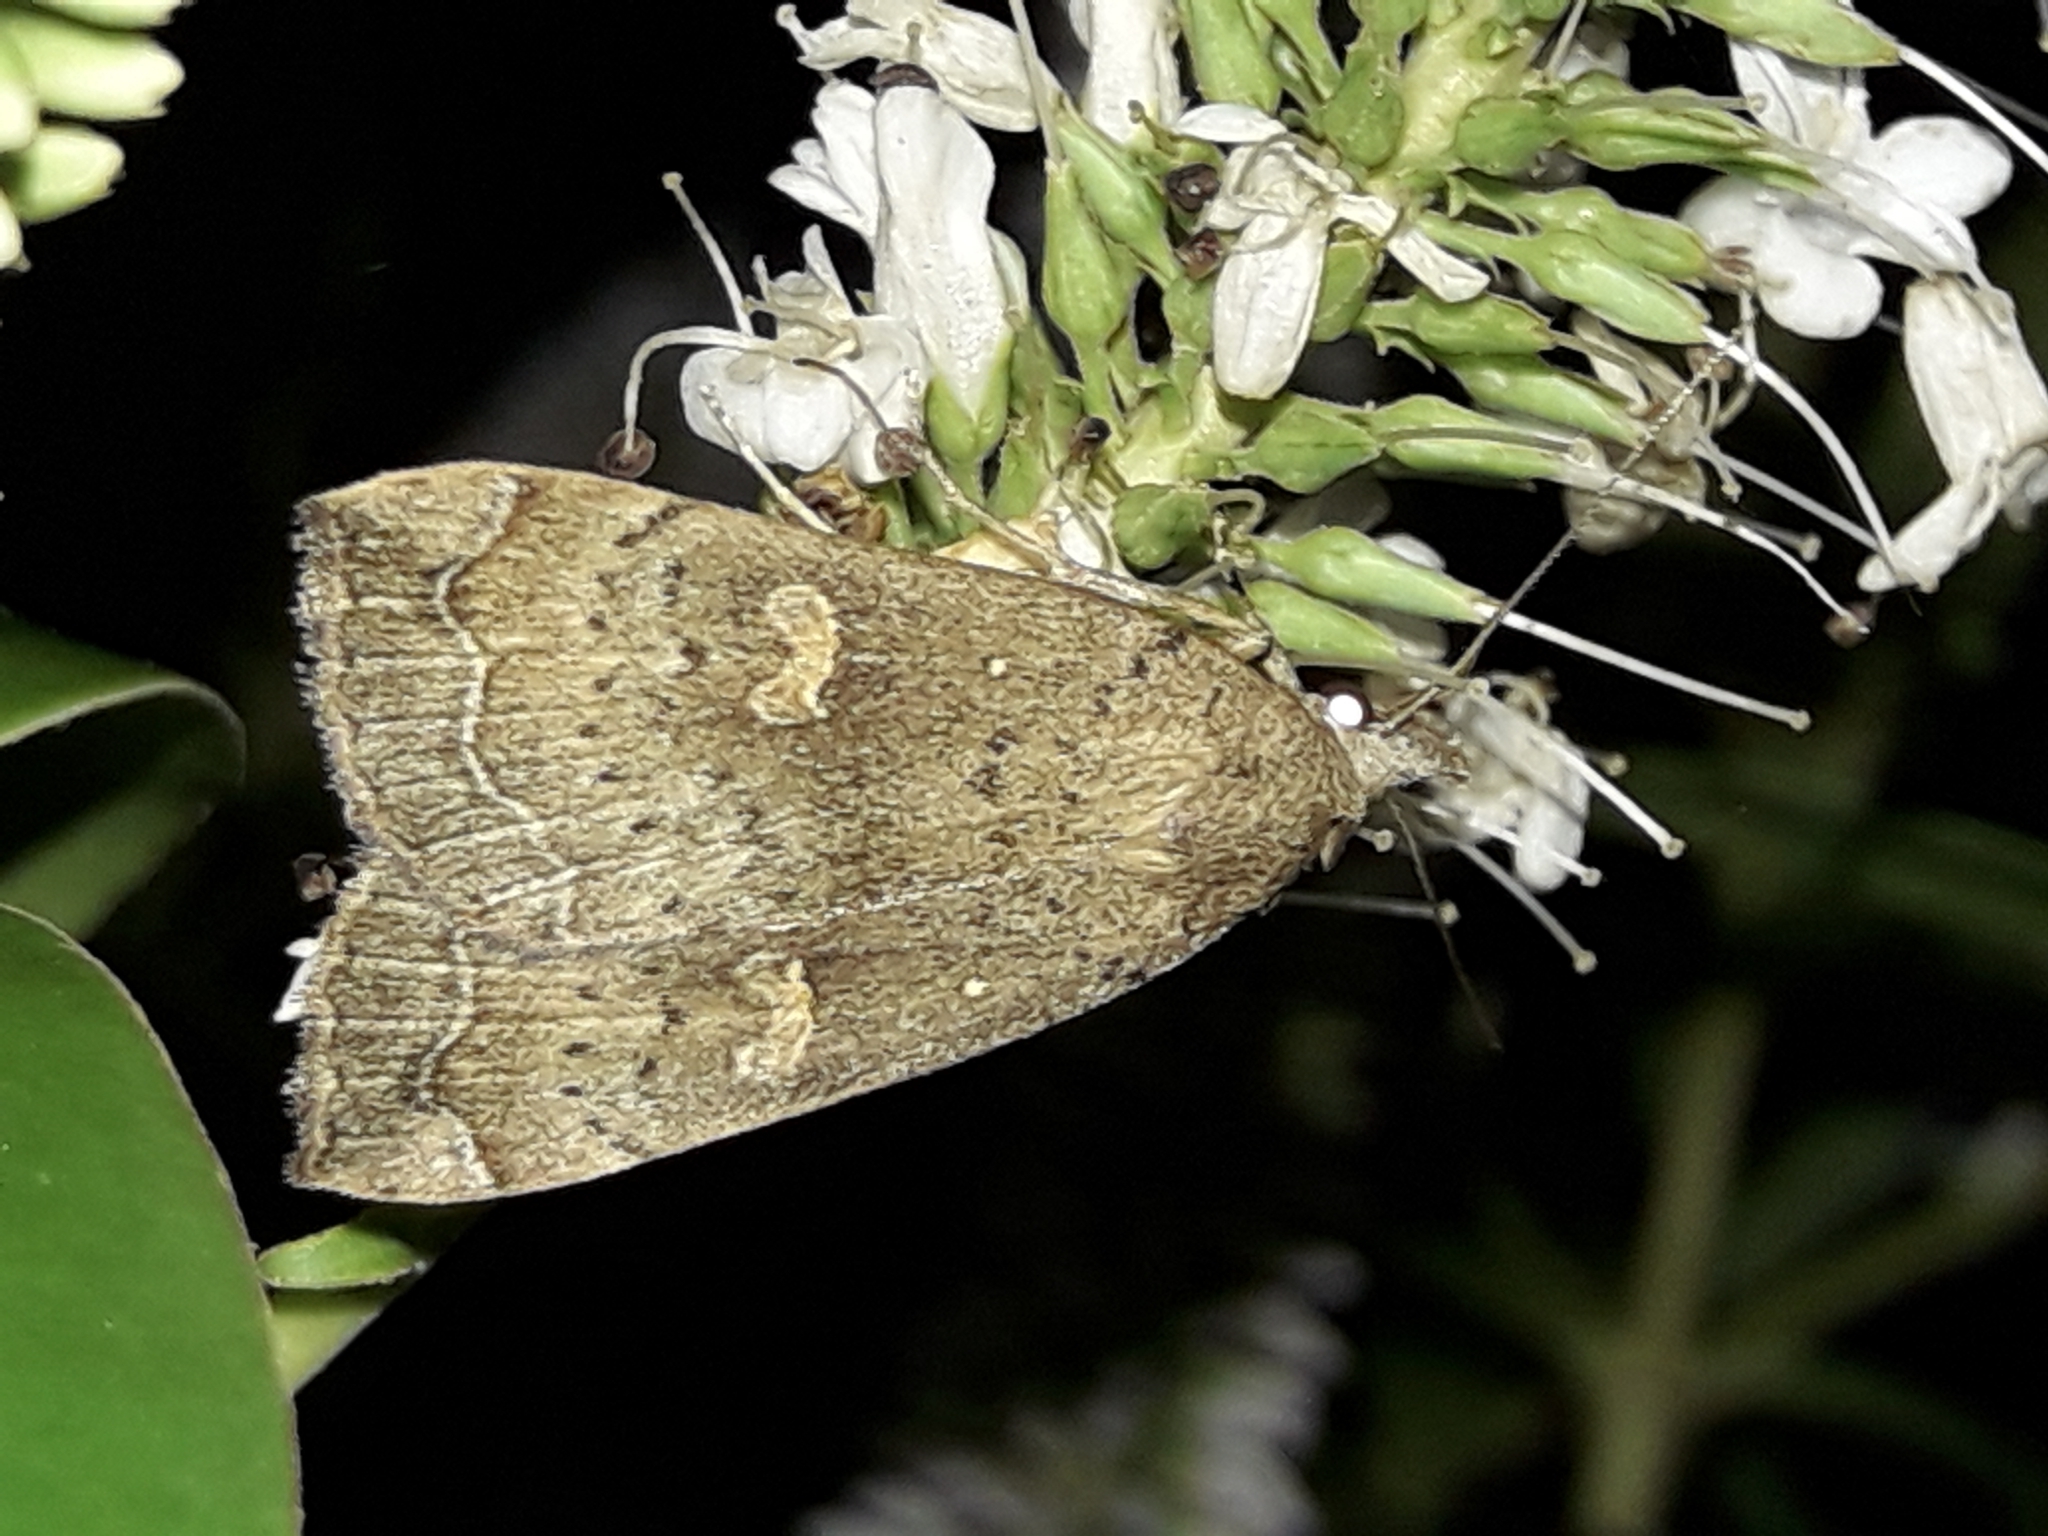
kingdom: Animalia
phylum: Arthropoda
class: Insecta
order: Lepidoptera
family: Erebidae
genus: Rhapsa
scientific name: Rhapsa scotosialis
